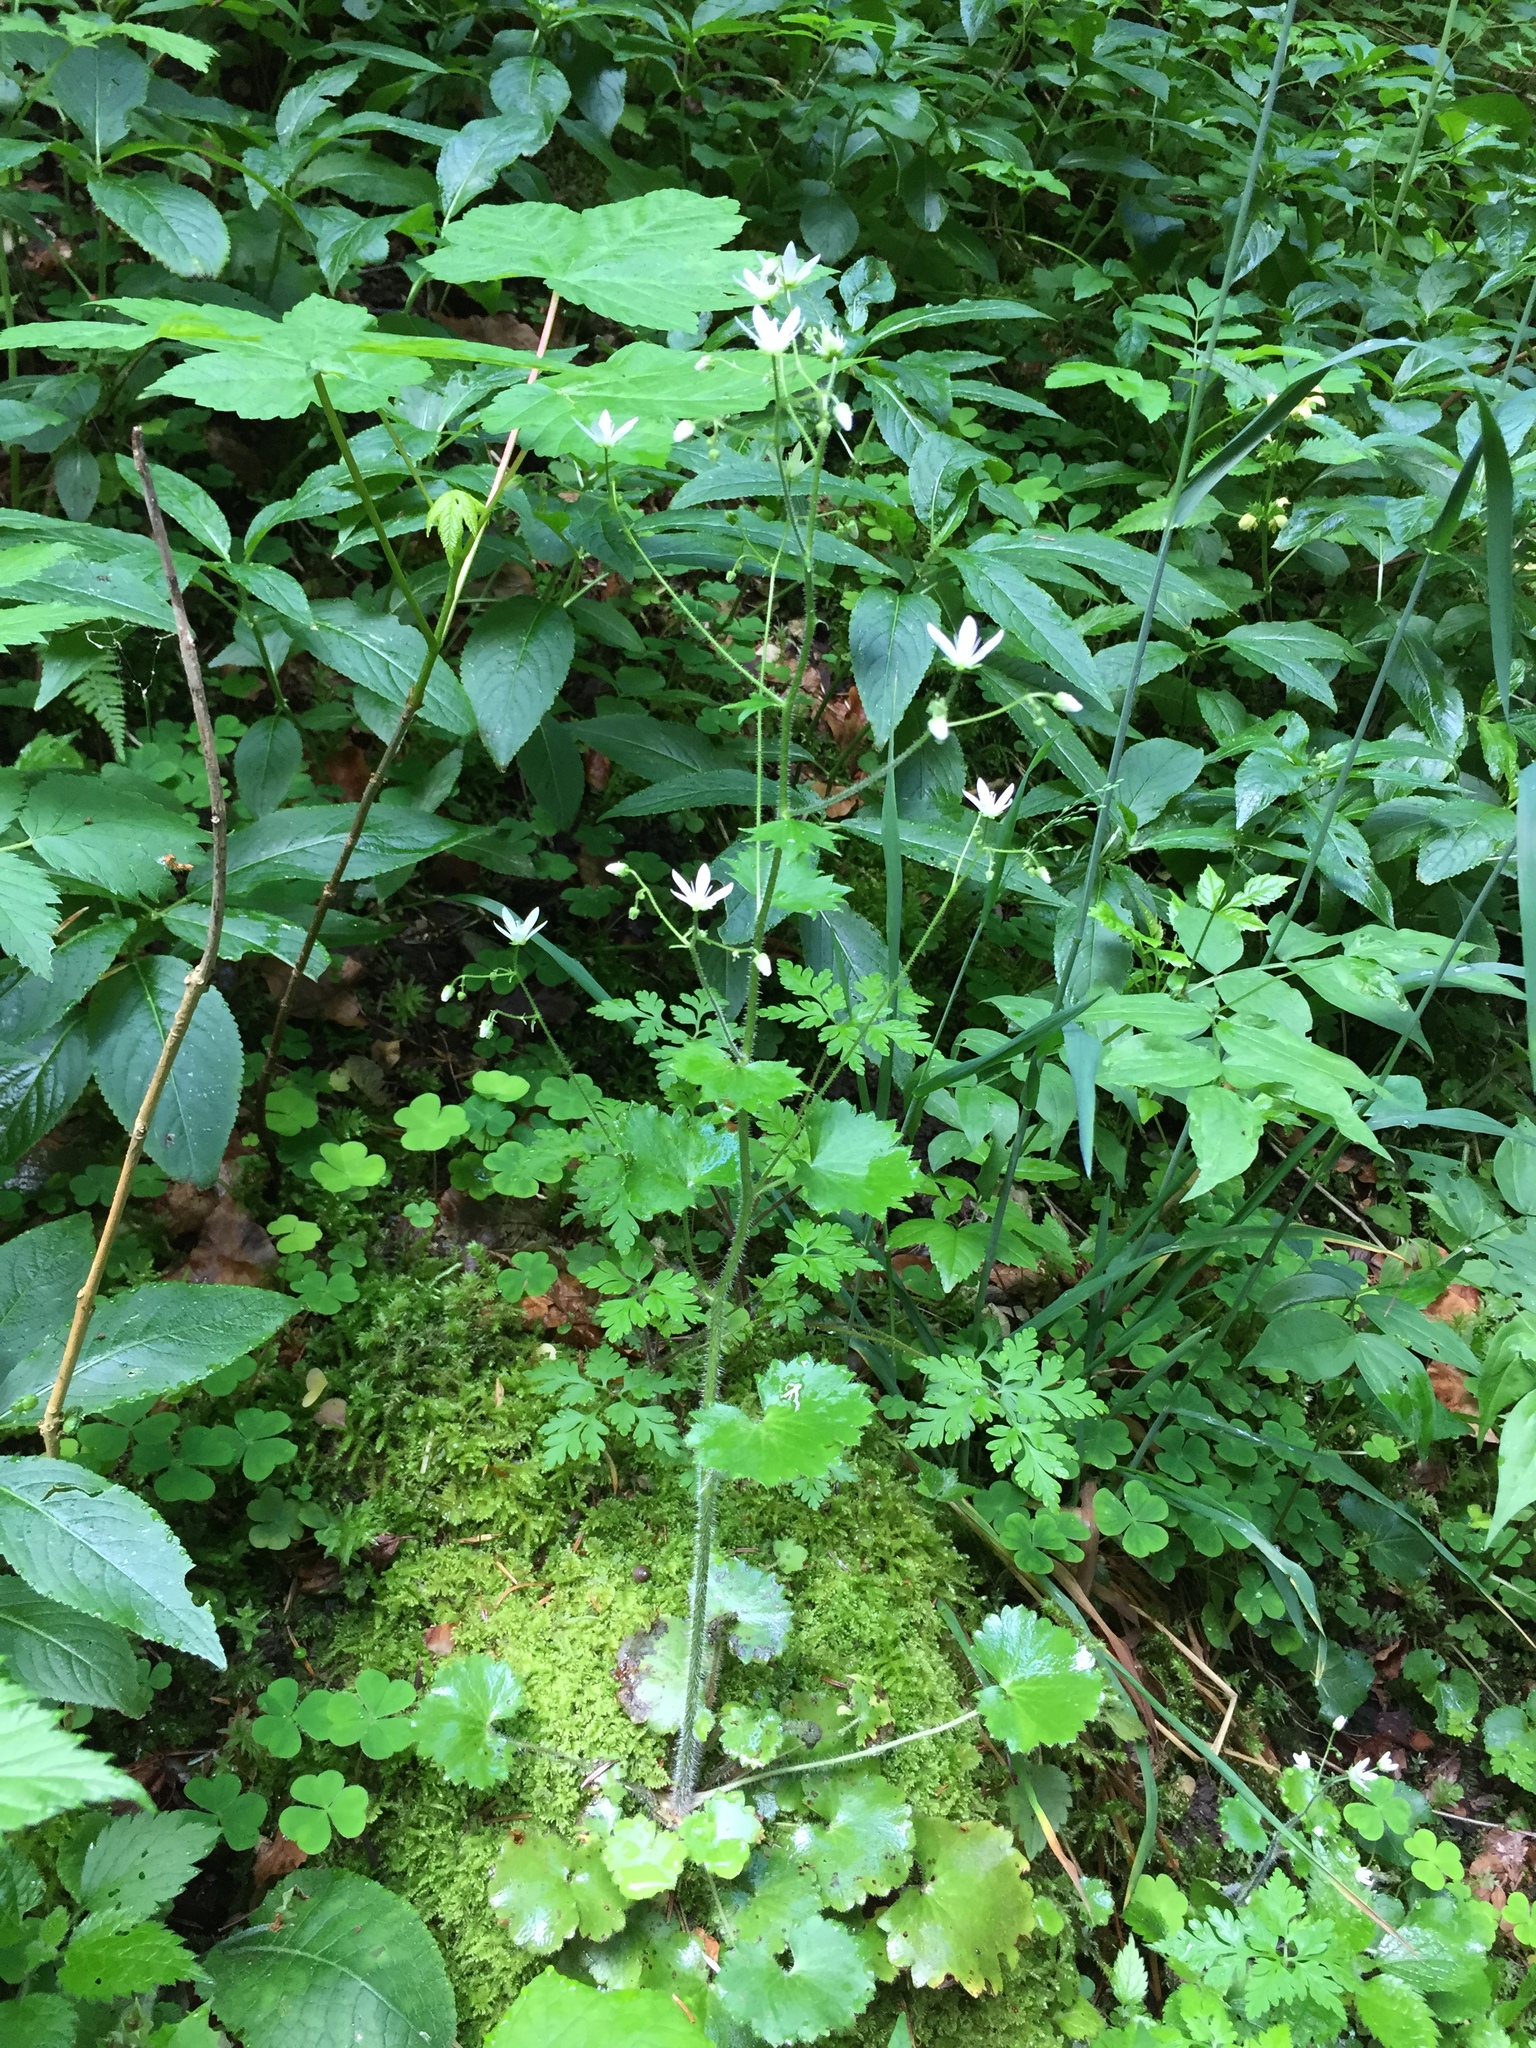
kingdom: Plantae
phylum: Tracheophyta
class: Magnoliopsida
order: Saxifragales
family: Saxifragaceae
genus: Saxifraga
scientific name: Saxifraga rotundifolia
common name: Round-leaved saxifrage
